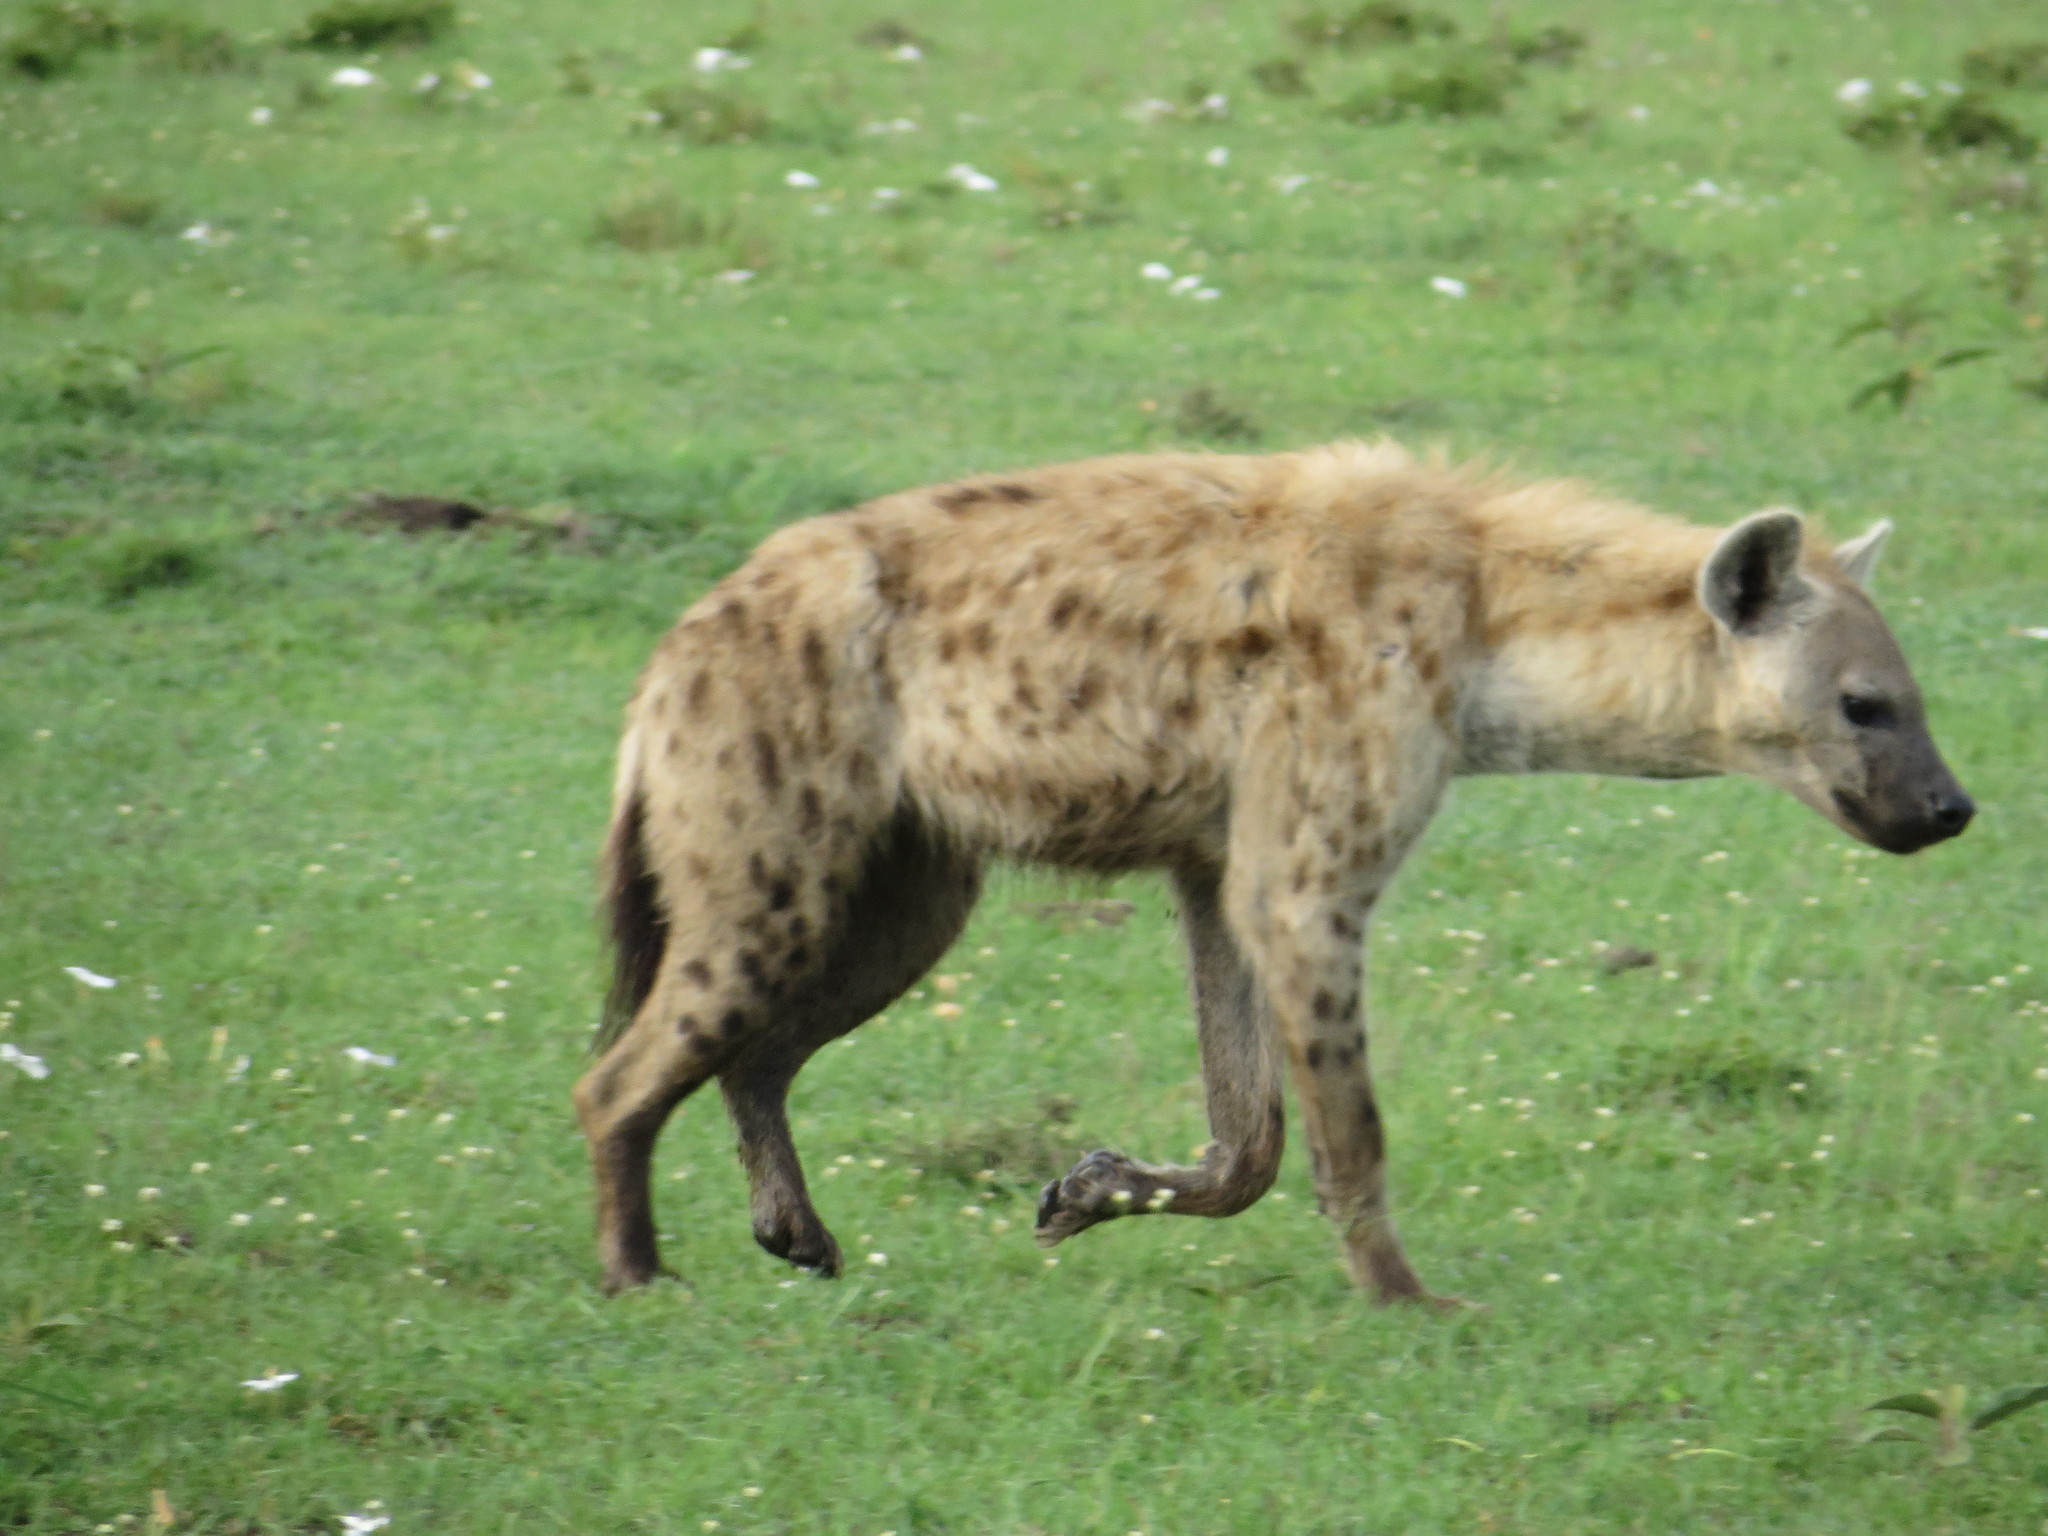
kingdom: Animalia
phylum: Chordata
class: Mammalia
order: Carnivora
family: Hyaenidae
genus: Crocuta
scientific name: Crocuta crocuta
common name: Spotted hyaena
